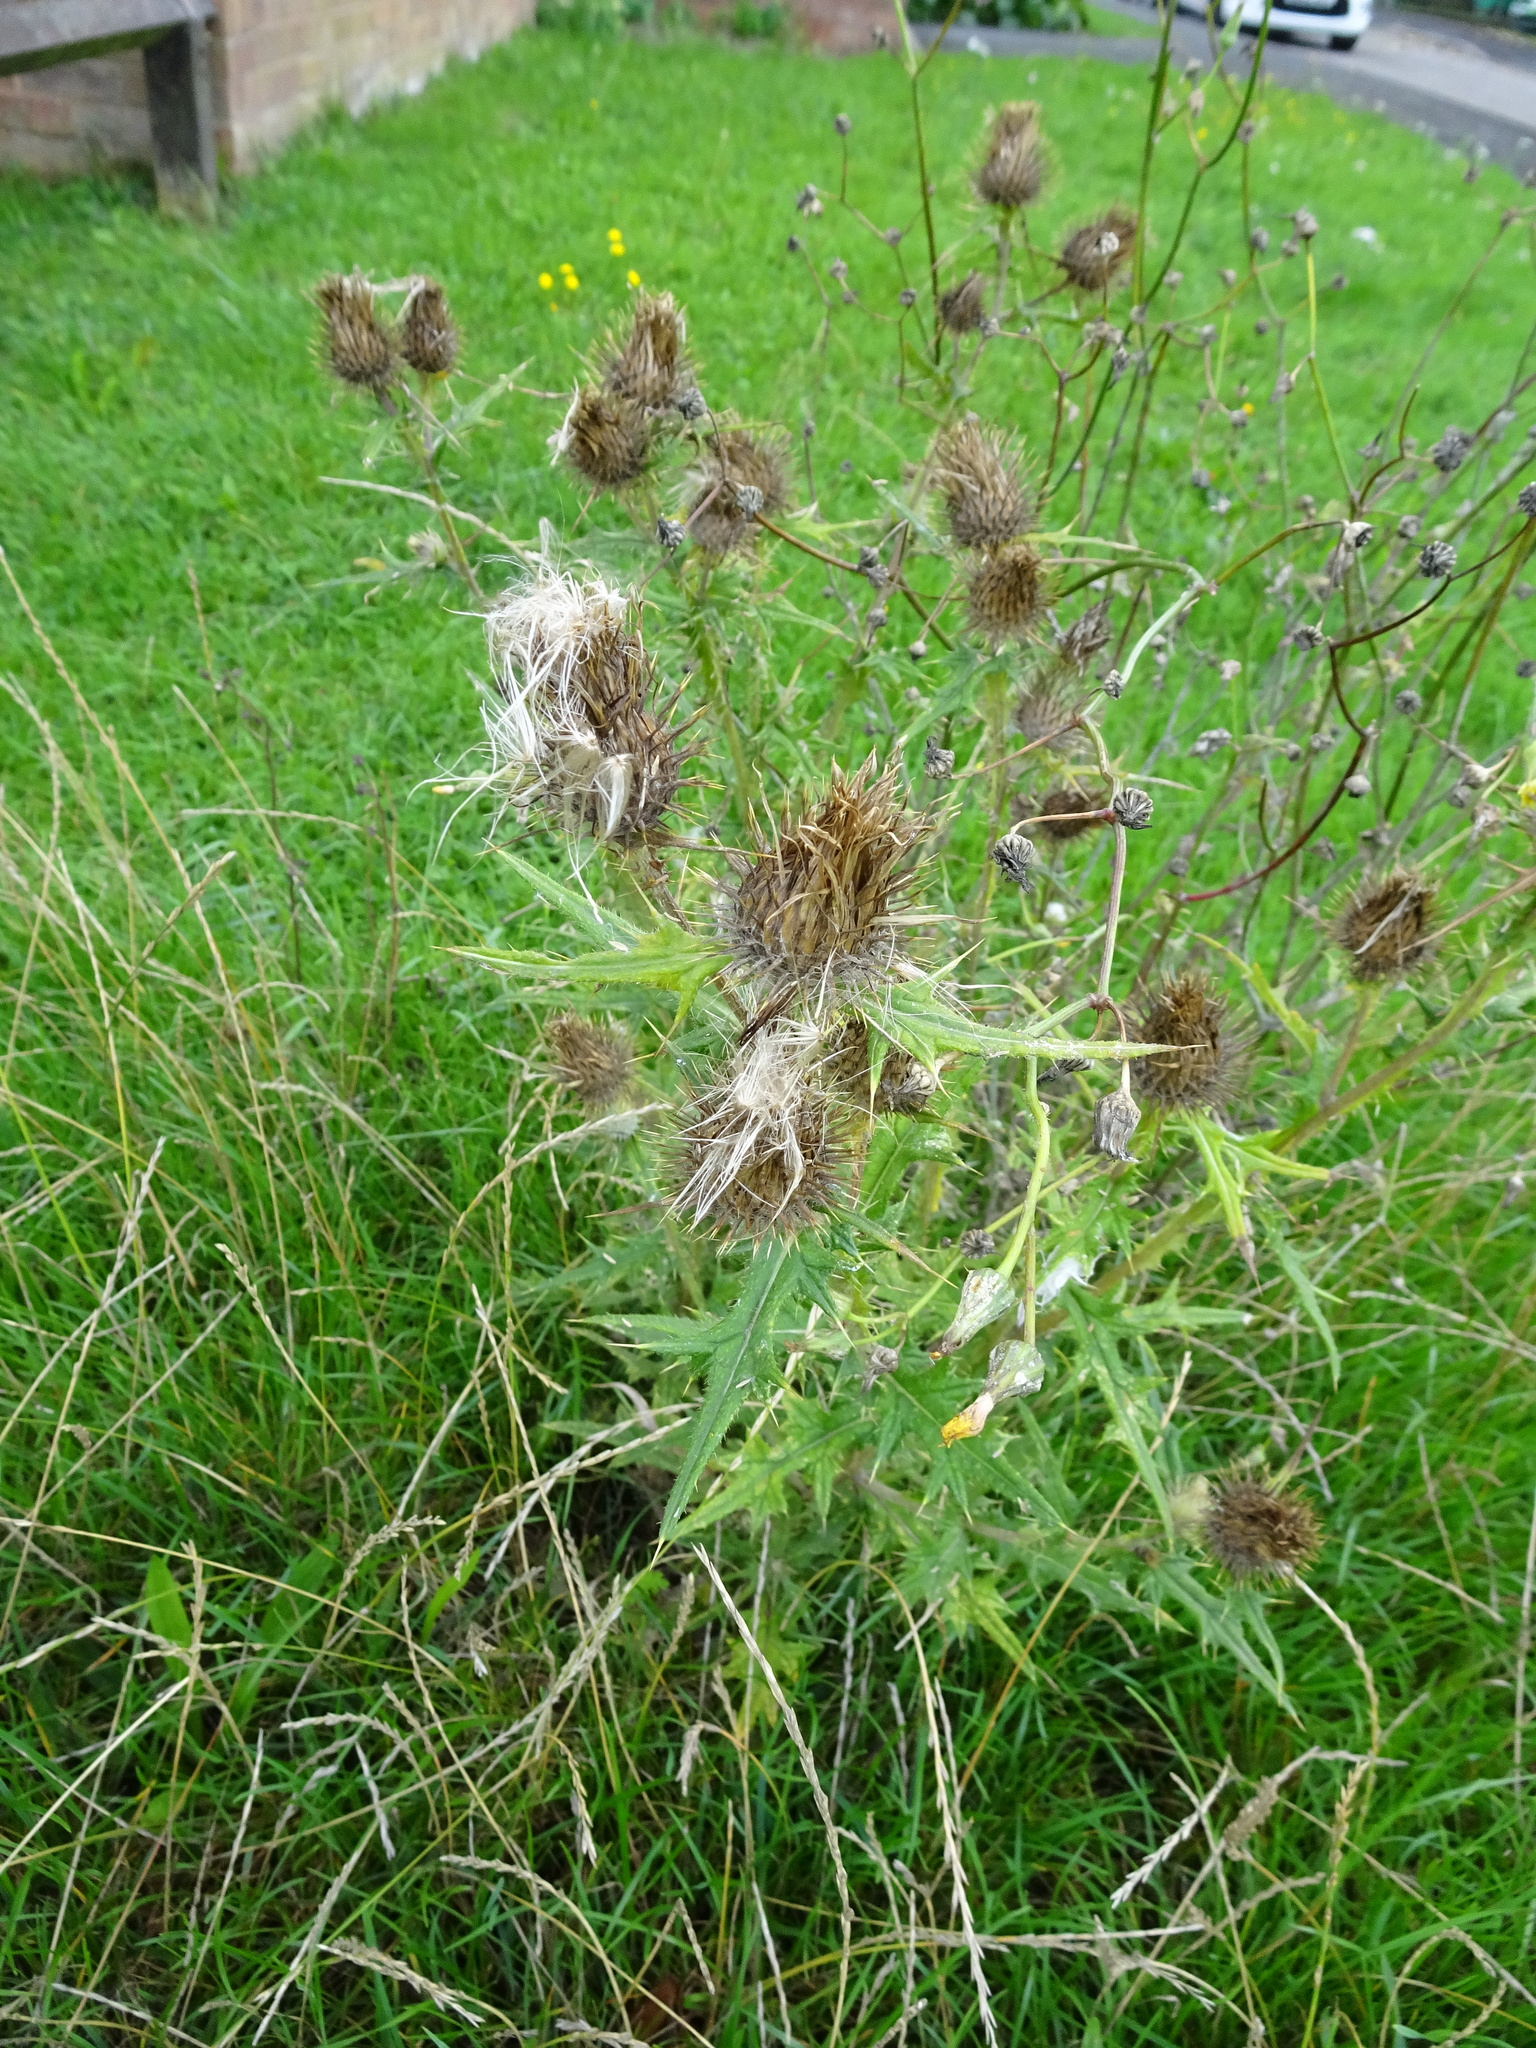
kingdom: Plantae
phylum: Tracheophyta
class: Magnoliopsida
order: Asterales
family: Asteraceae
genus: Cirsium
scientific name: Cirsium vulgare
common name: Bull thistle
